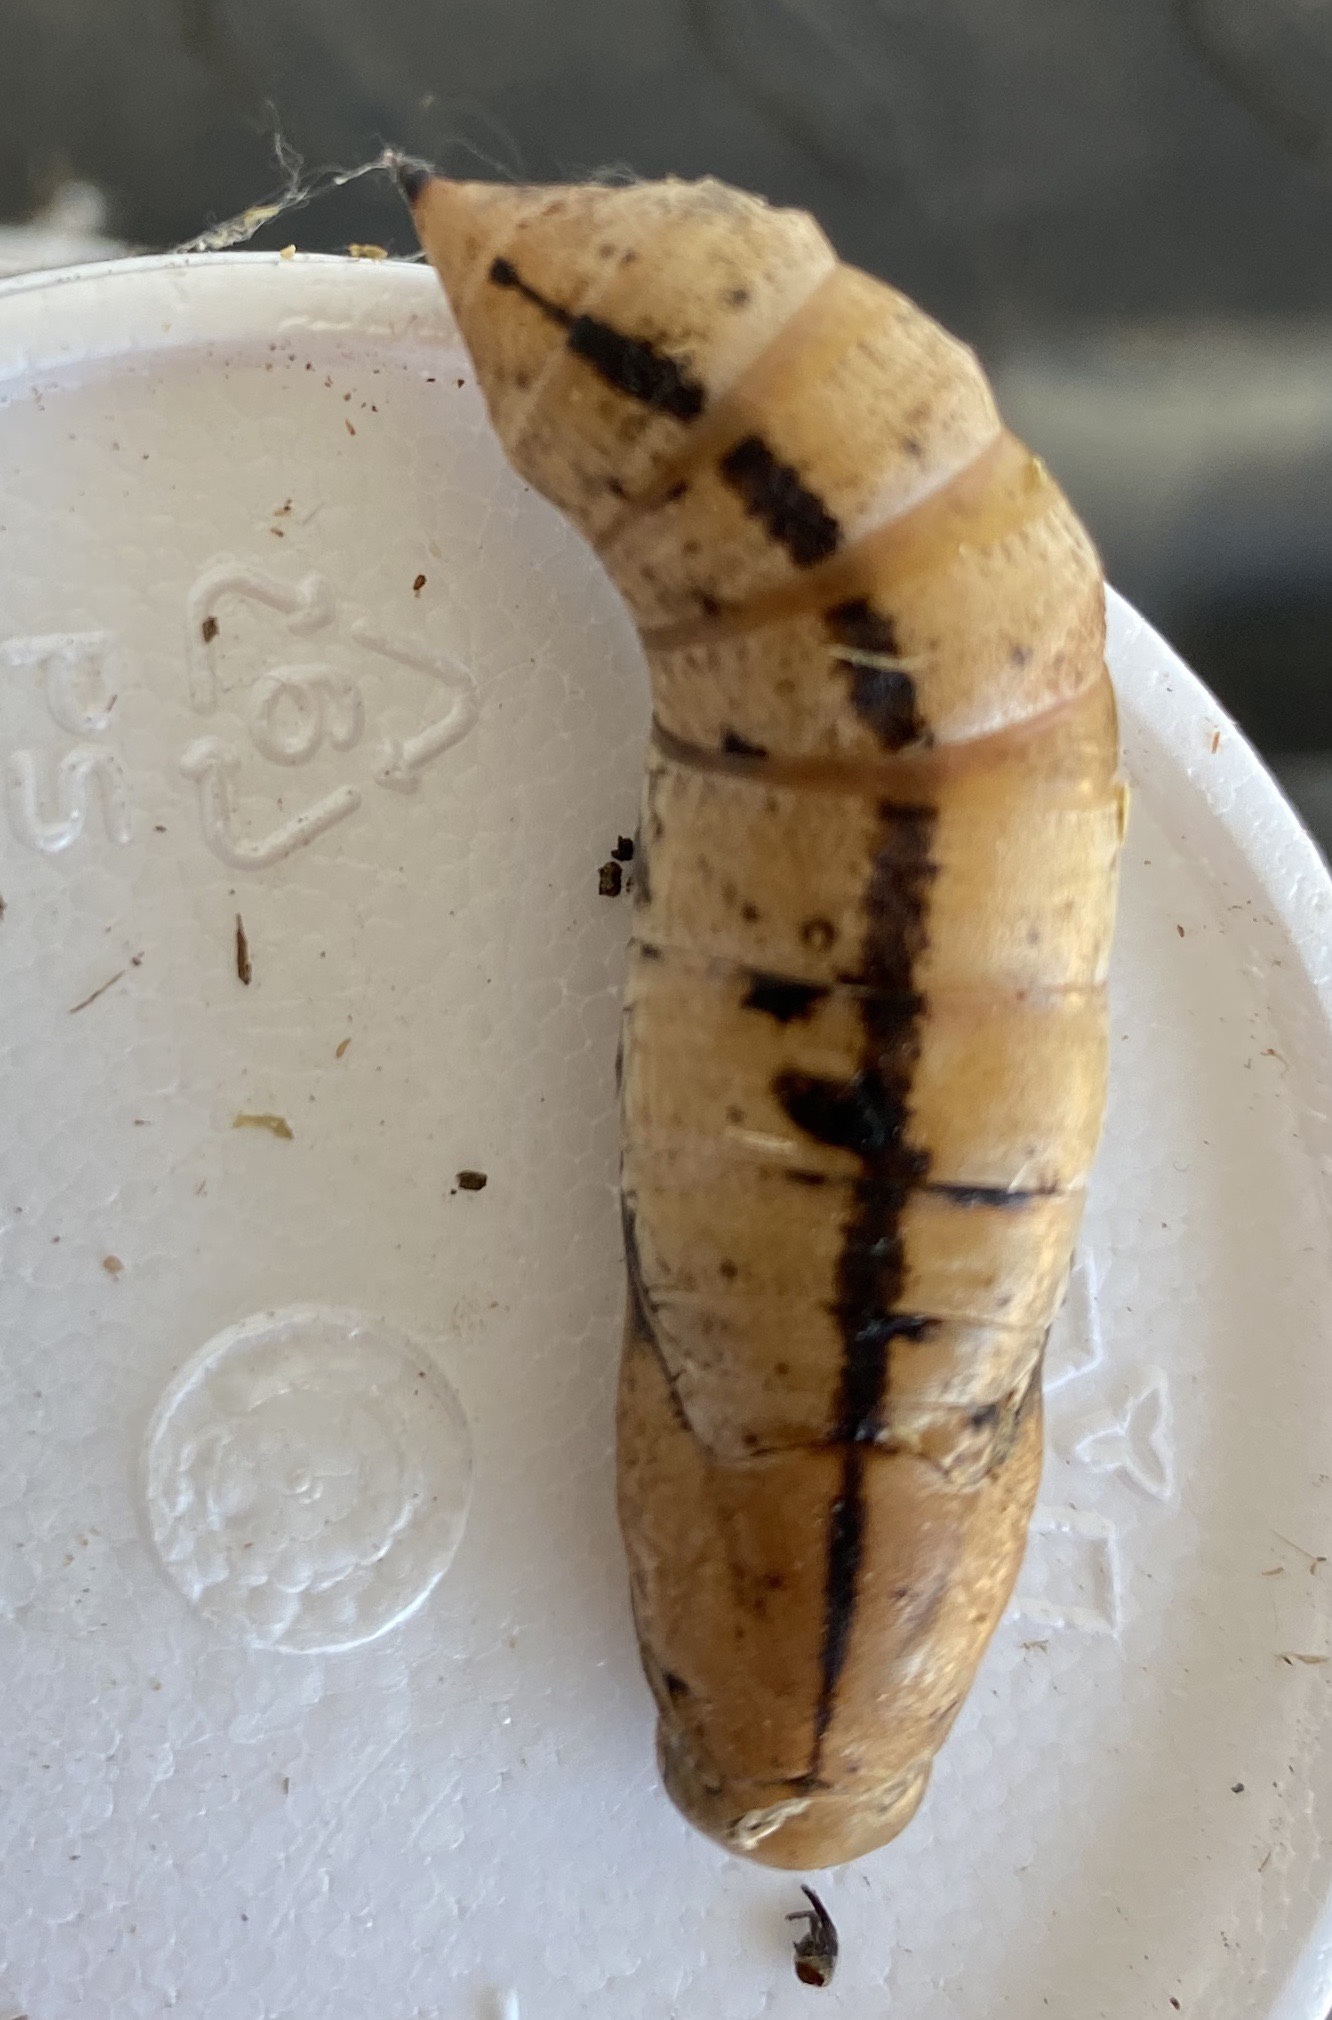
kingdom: Animalia
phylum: Arthropoda
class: Insecta
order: Lepidoptera
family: Sphingidae
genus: Xylophanes
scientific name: Xylophanes tersa
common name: Tersa sphinx
